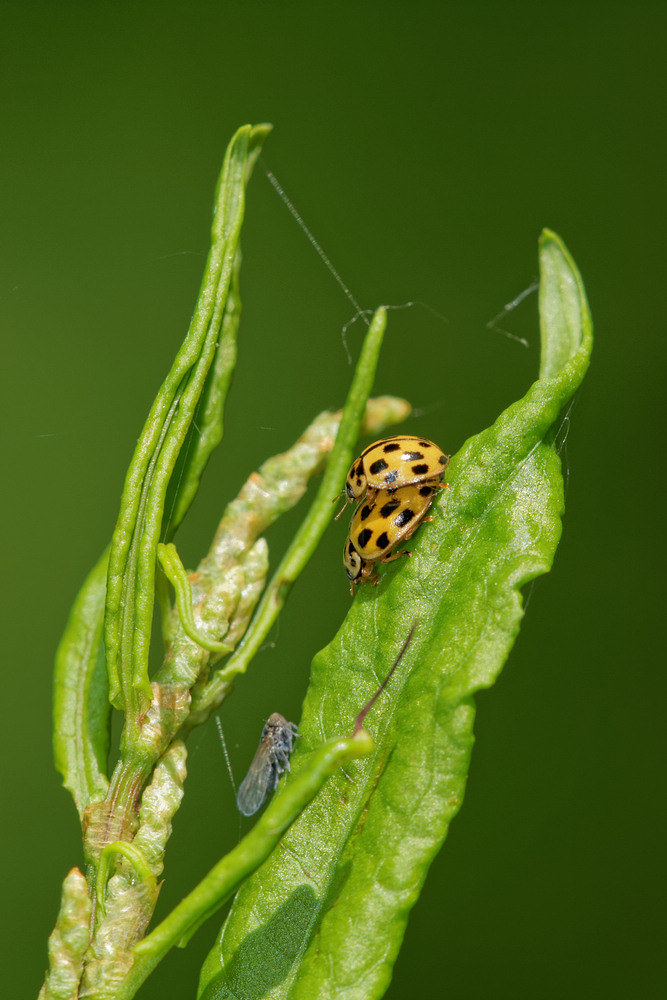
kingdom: Animalia
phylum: Arthropoda
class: Insecta
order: Coleoptera
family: Coccinellidae
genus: Propylaea
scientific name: Propylaea quatuordecimpunctata
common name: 14-spotted ladybird beetle
